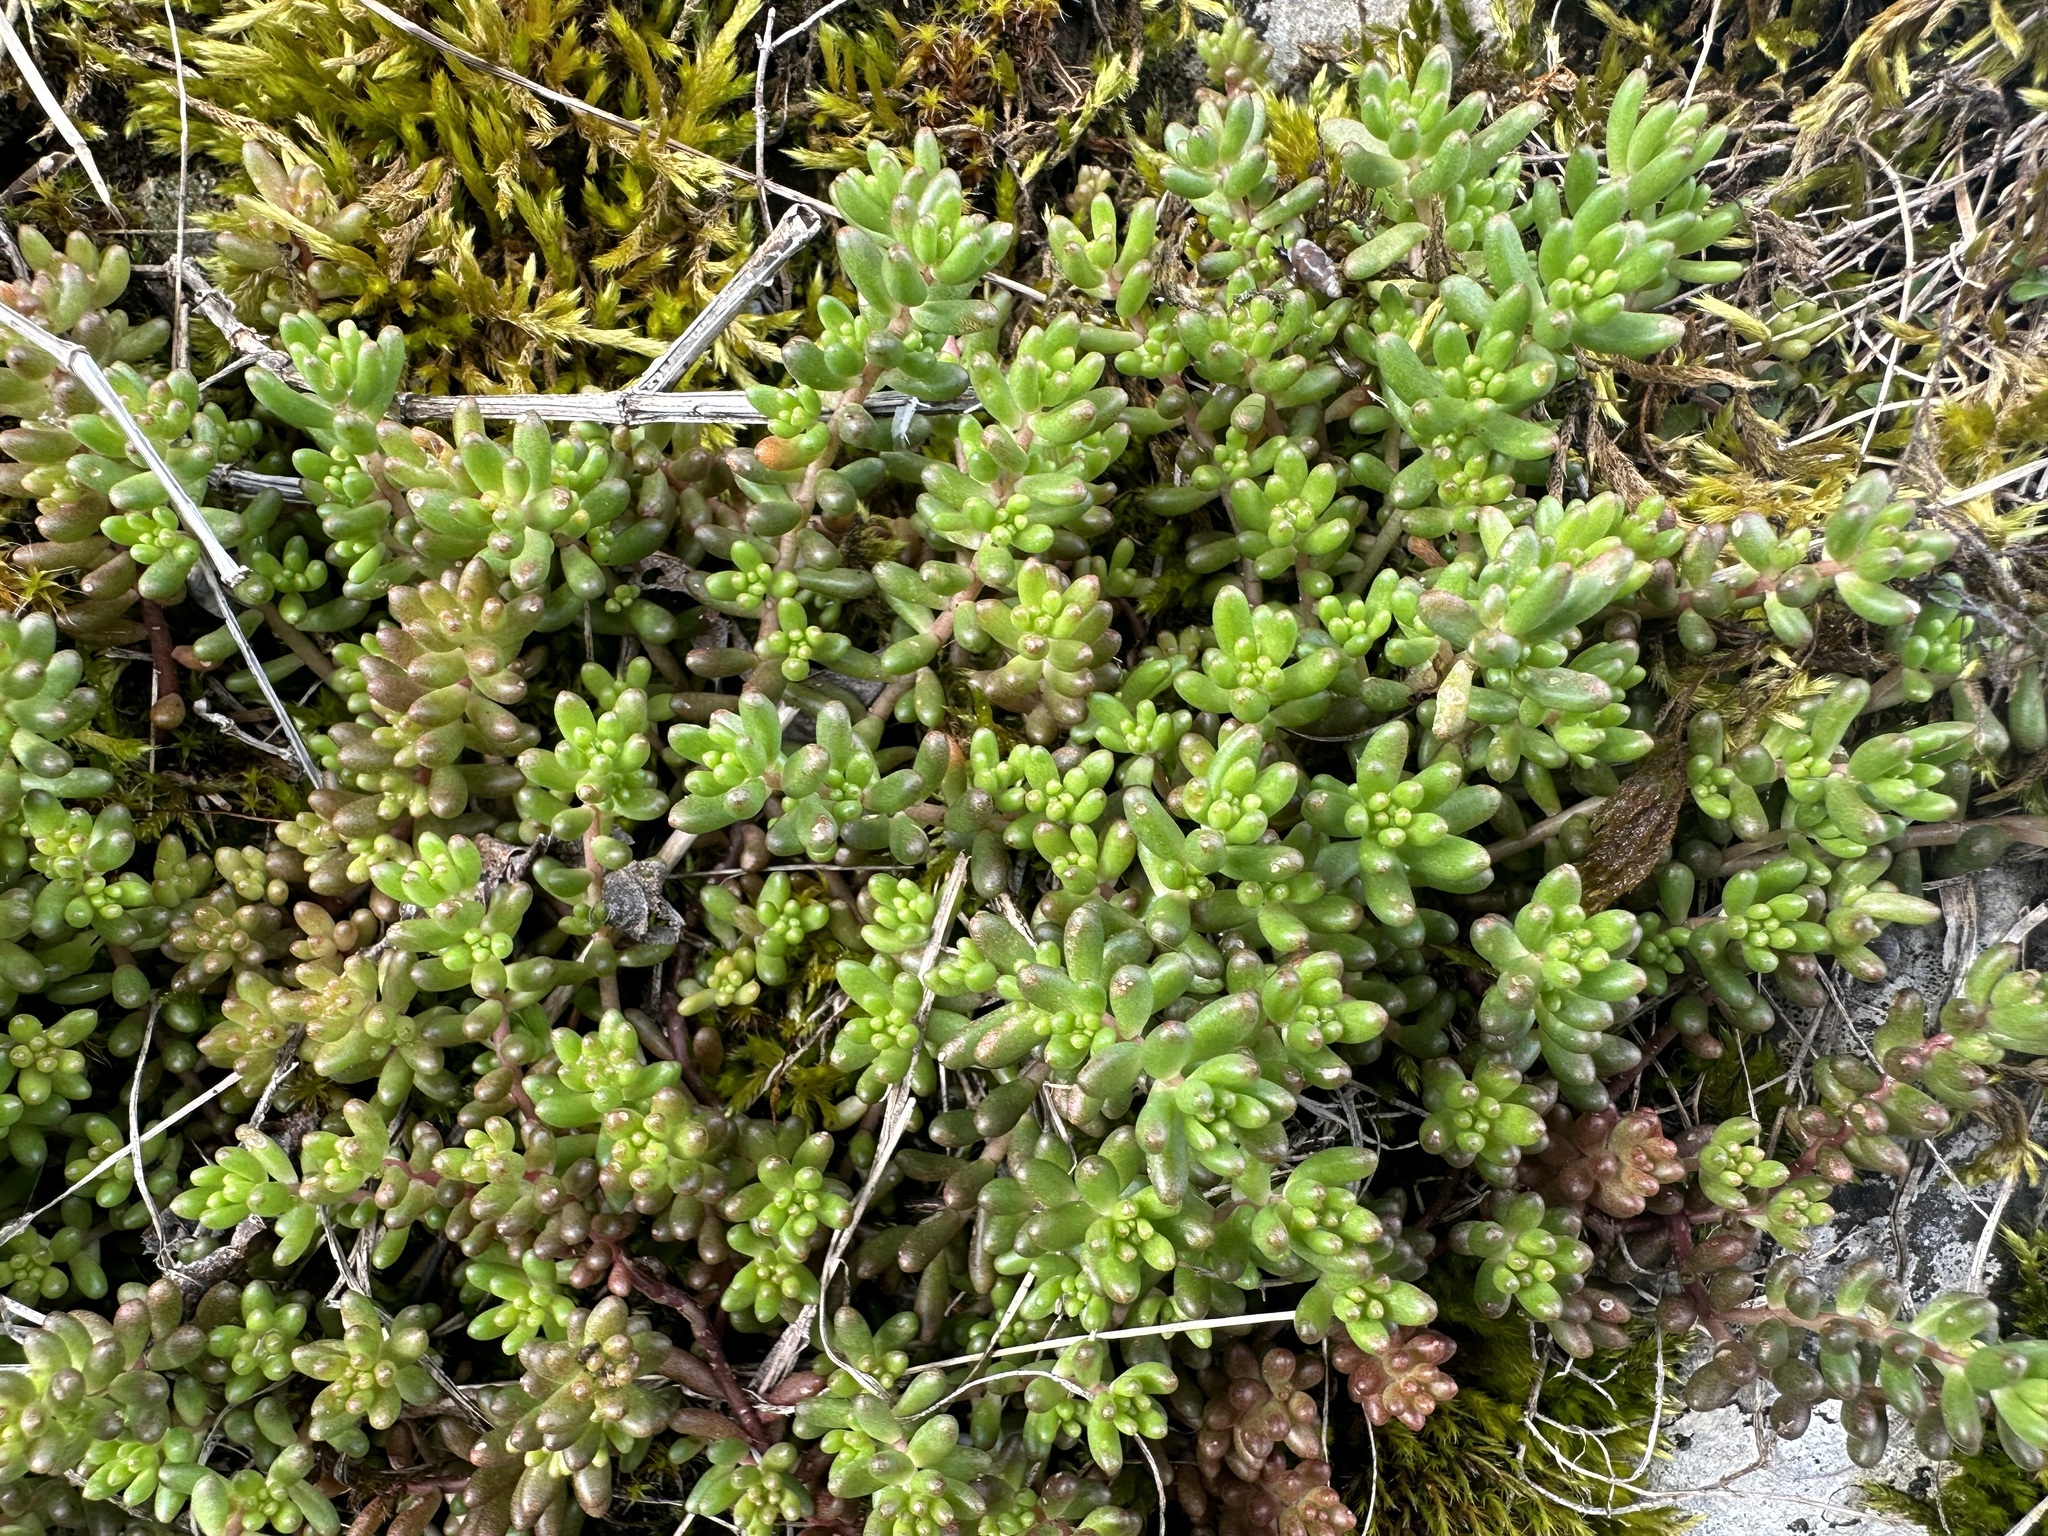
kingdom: Plantae
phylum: Tracheophyta
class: Magnoliopsida
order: Saxifragales
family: Crassulaceae
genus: Sedum
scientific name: Sedum album
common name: White stonecrop
